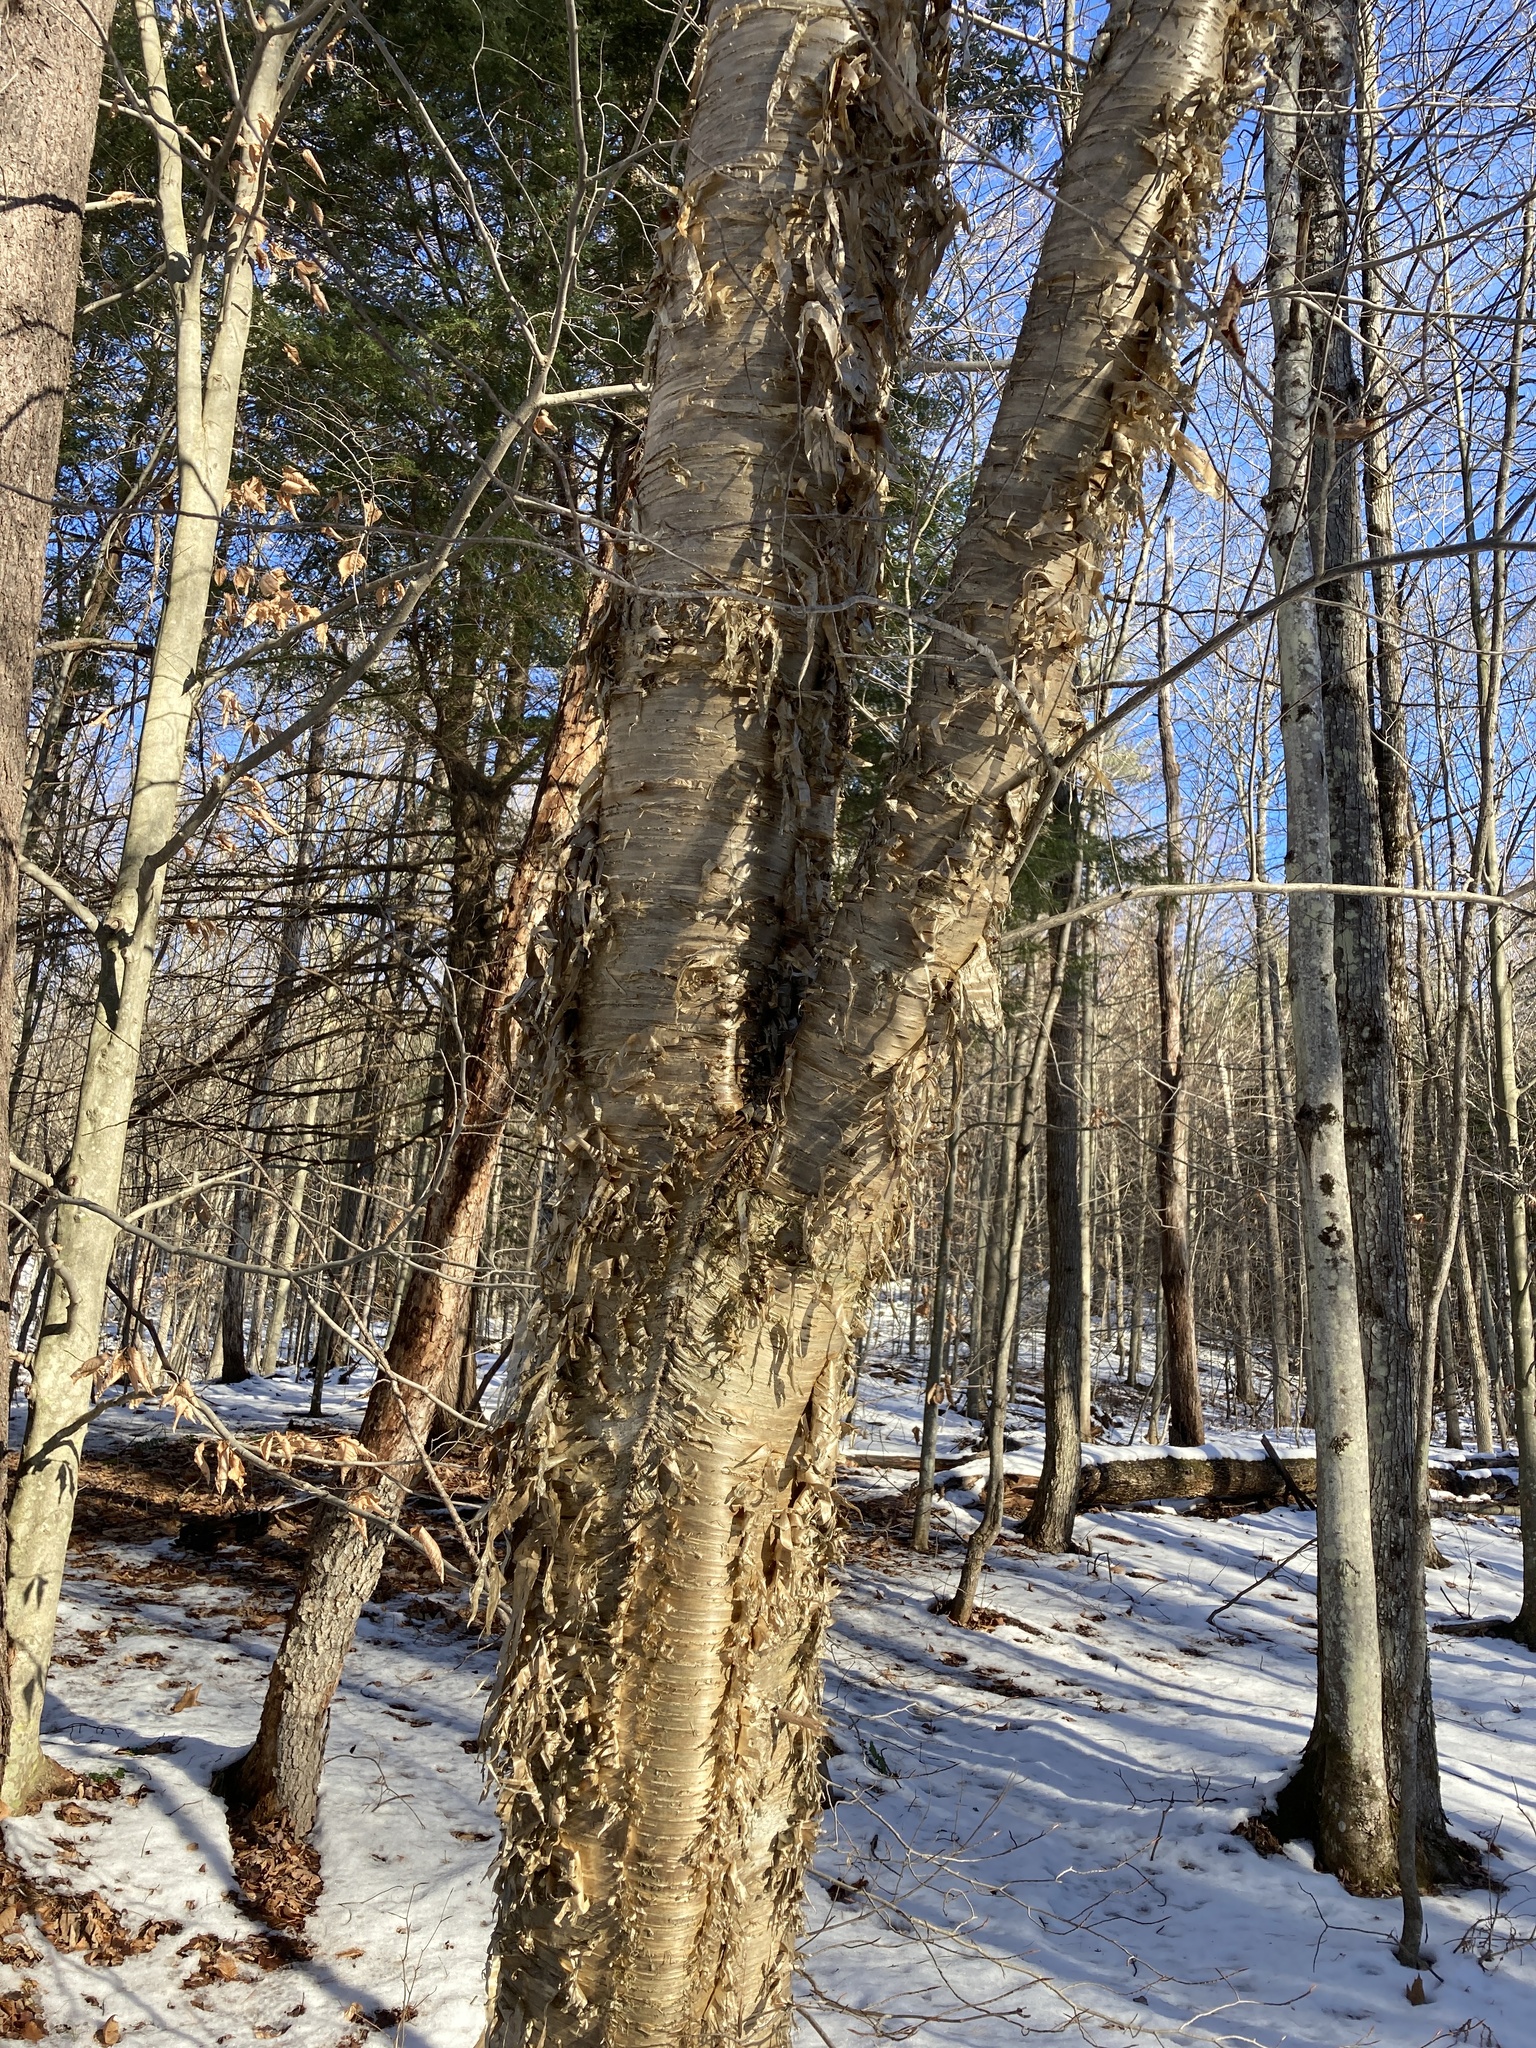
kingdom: Plantae
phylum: Tracheophyta
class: Magnoliopsida
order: Fagales
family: Betulaceae
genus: Betula
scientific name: Betula alleghaniensis
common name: Yellow birch
